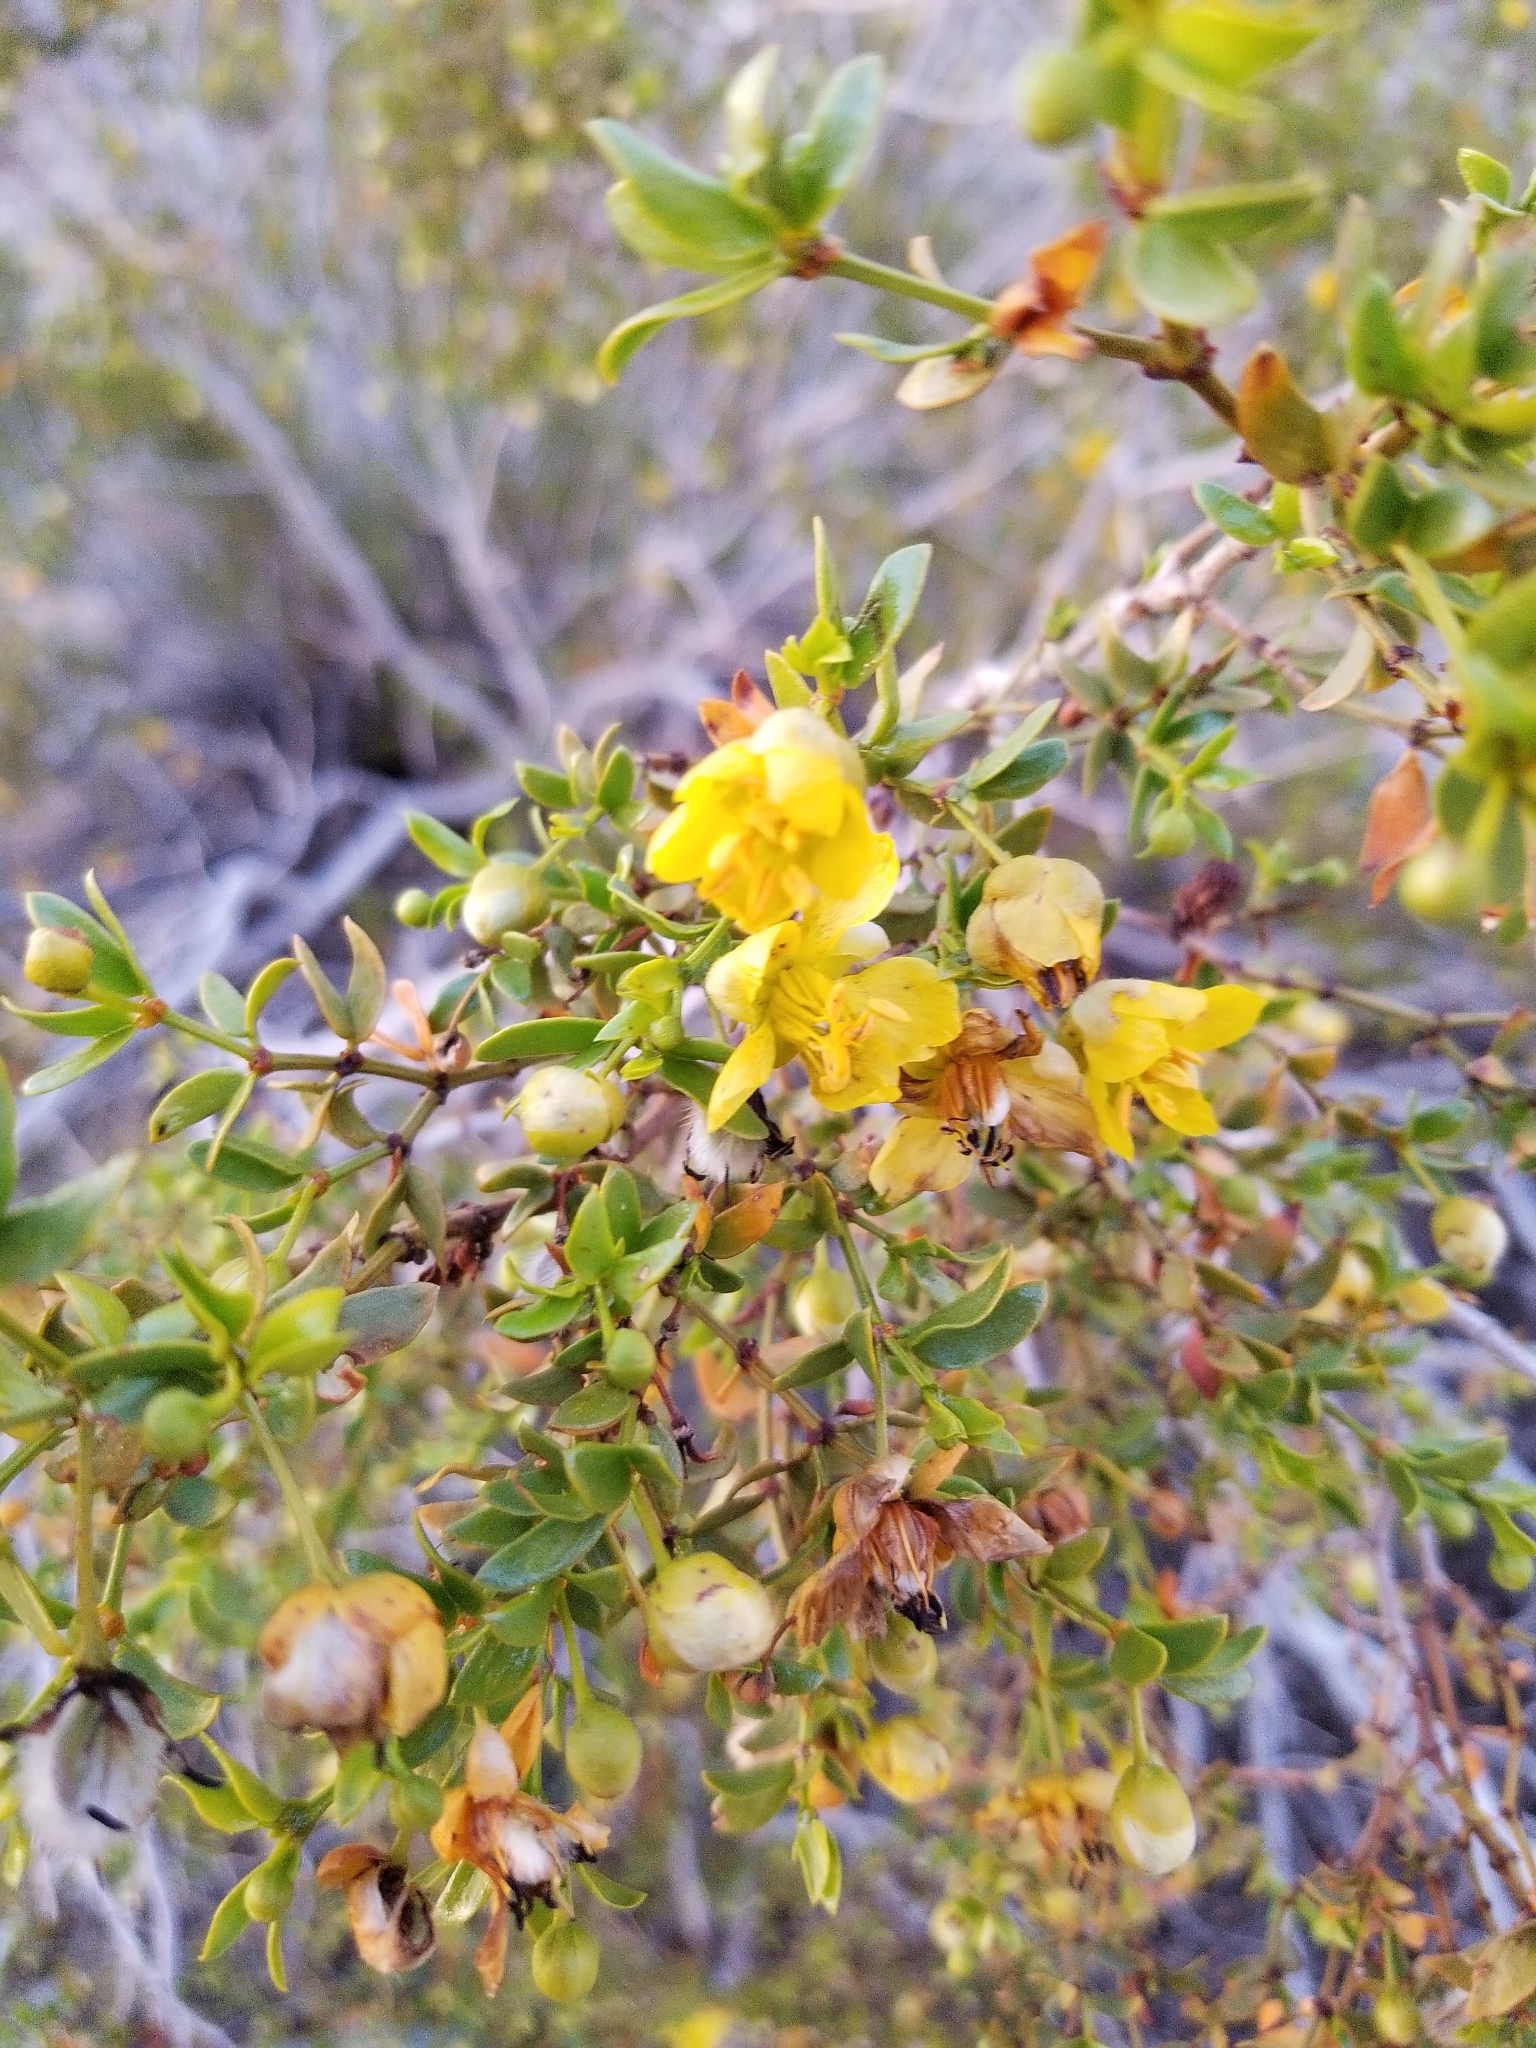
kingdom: Plantae
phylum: Tracheophyta
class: Magnoliopsida
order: Zygophyllales
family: Zygophyllaceae
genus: Larrea
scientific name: Larrea tridentata
